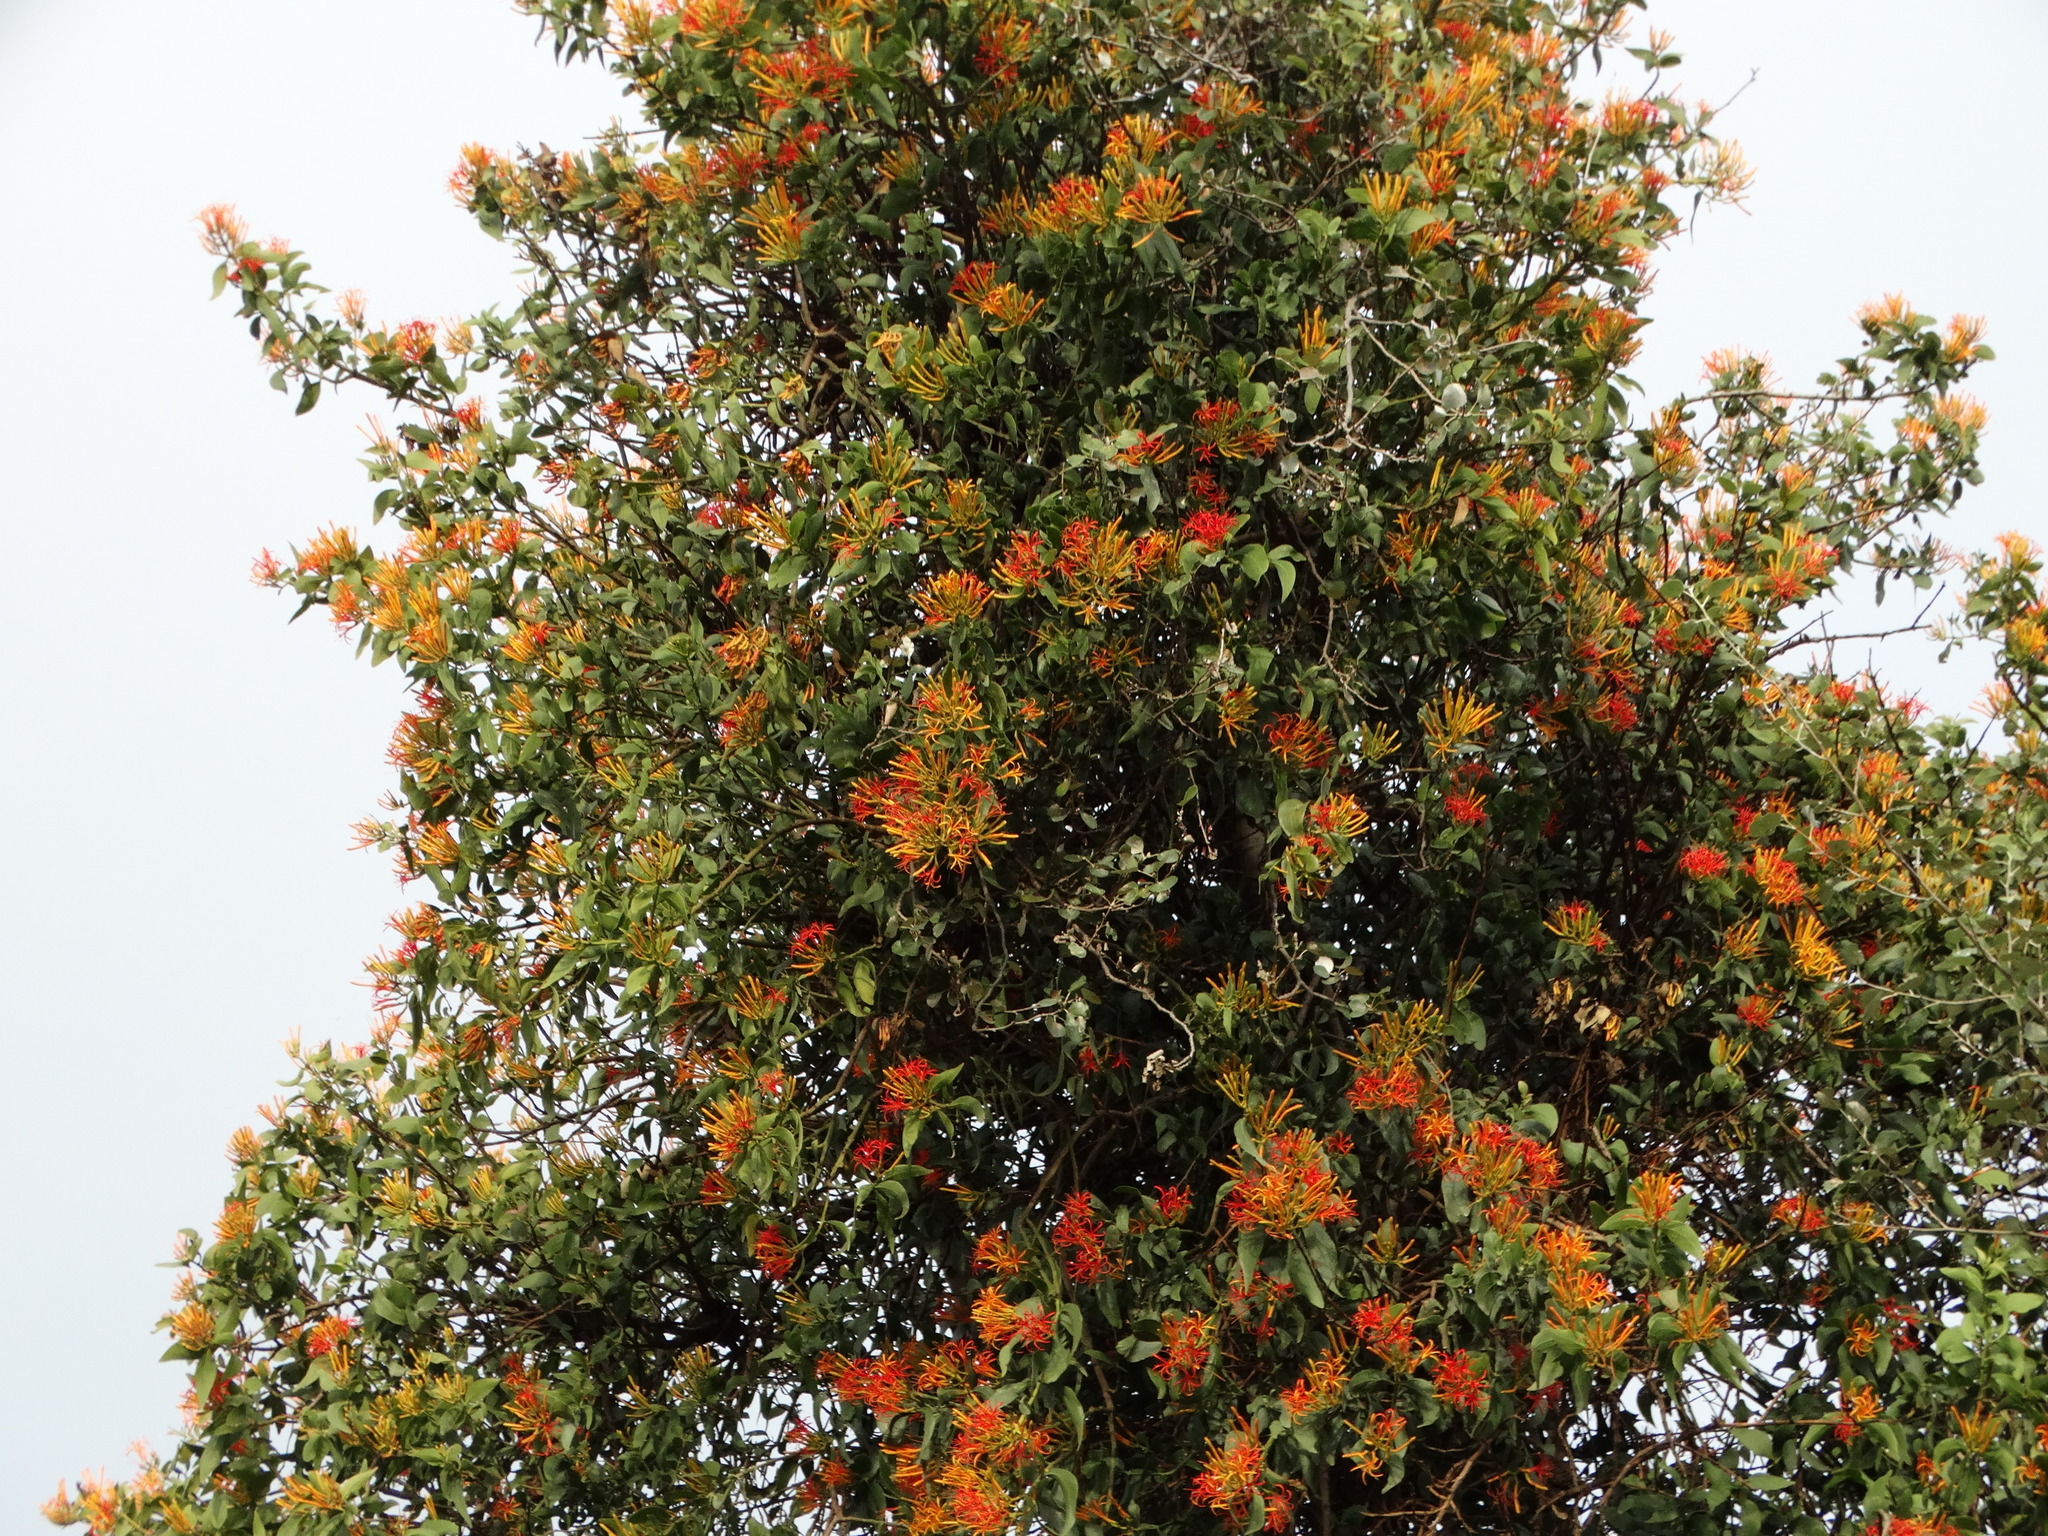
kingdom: Plantae
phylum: Tracheophyta
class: Magnoliopsida
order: Santalales
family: Loranthaceae
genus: Psittacanthus
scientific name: Psittacanthus calyculatus
